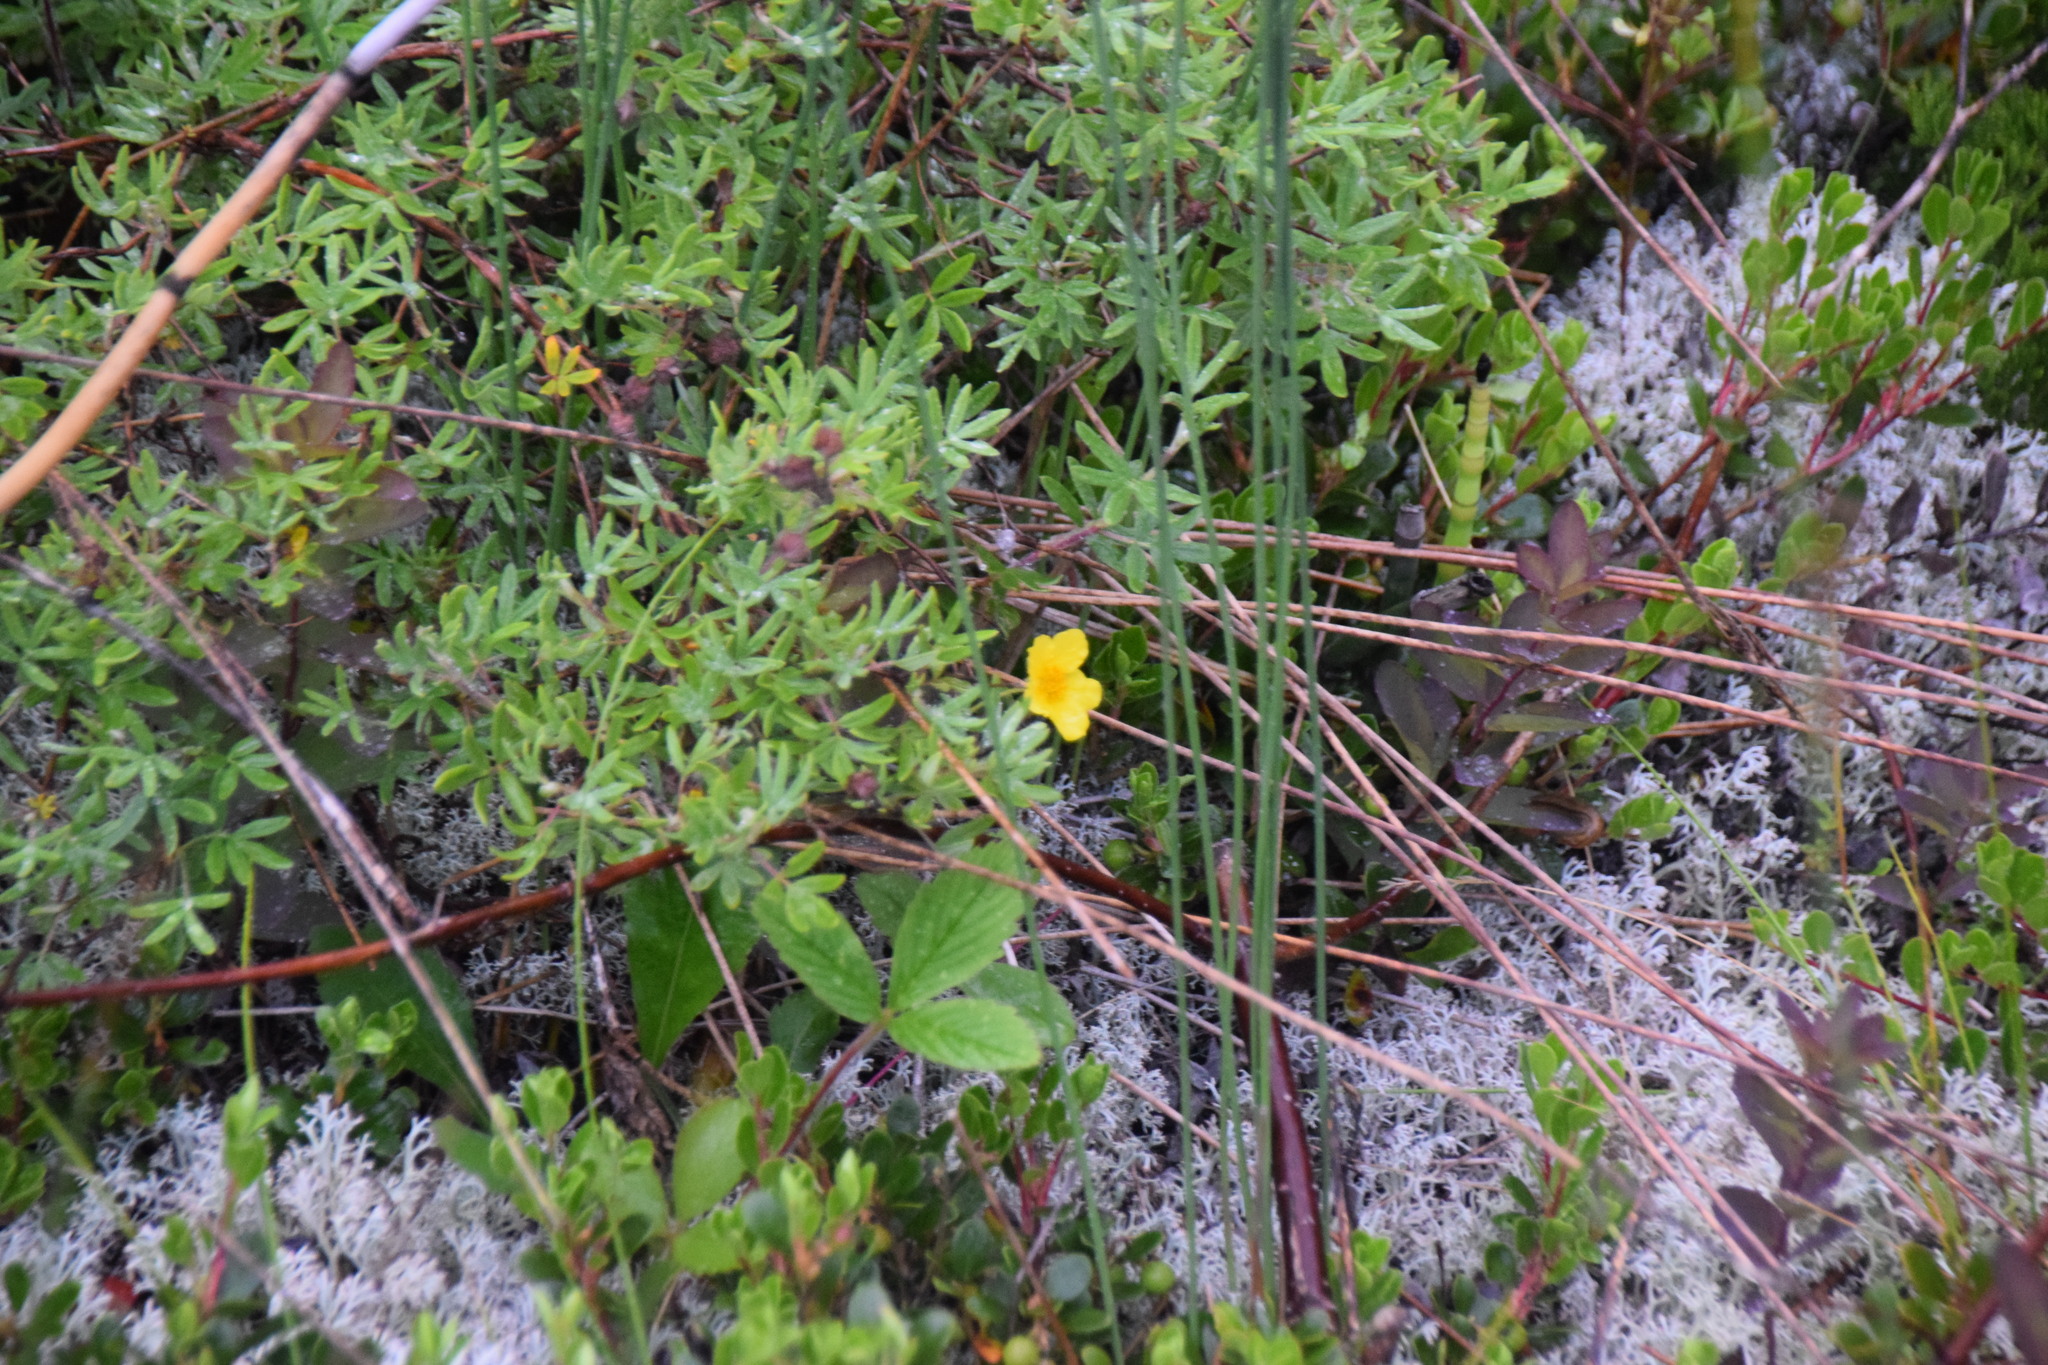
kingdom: Plantae
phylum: Tracheophyta
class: Magnoliopsida
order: Rosales
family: Rosaceae
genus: Dasiphora
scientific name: Dasiphora fruticosa
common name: Shrubby cinquefoil
